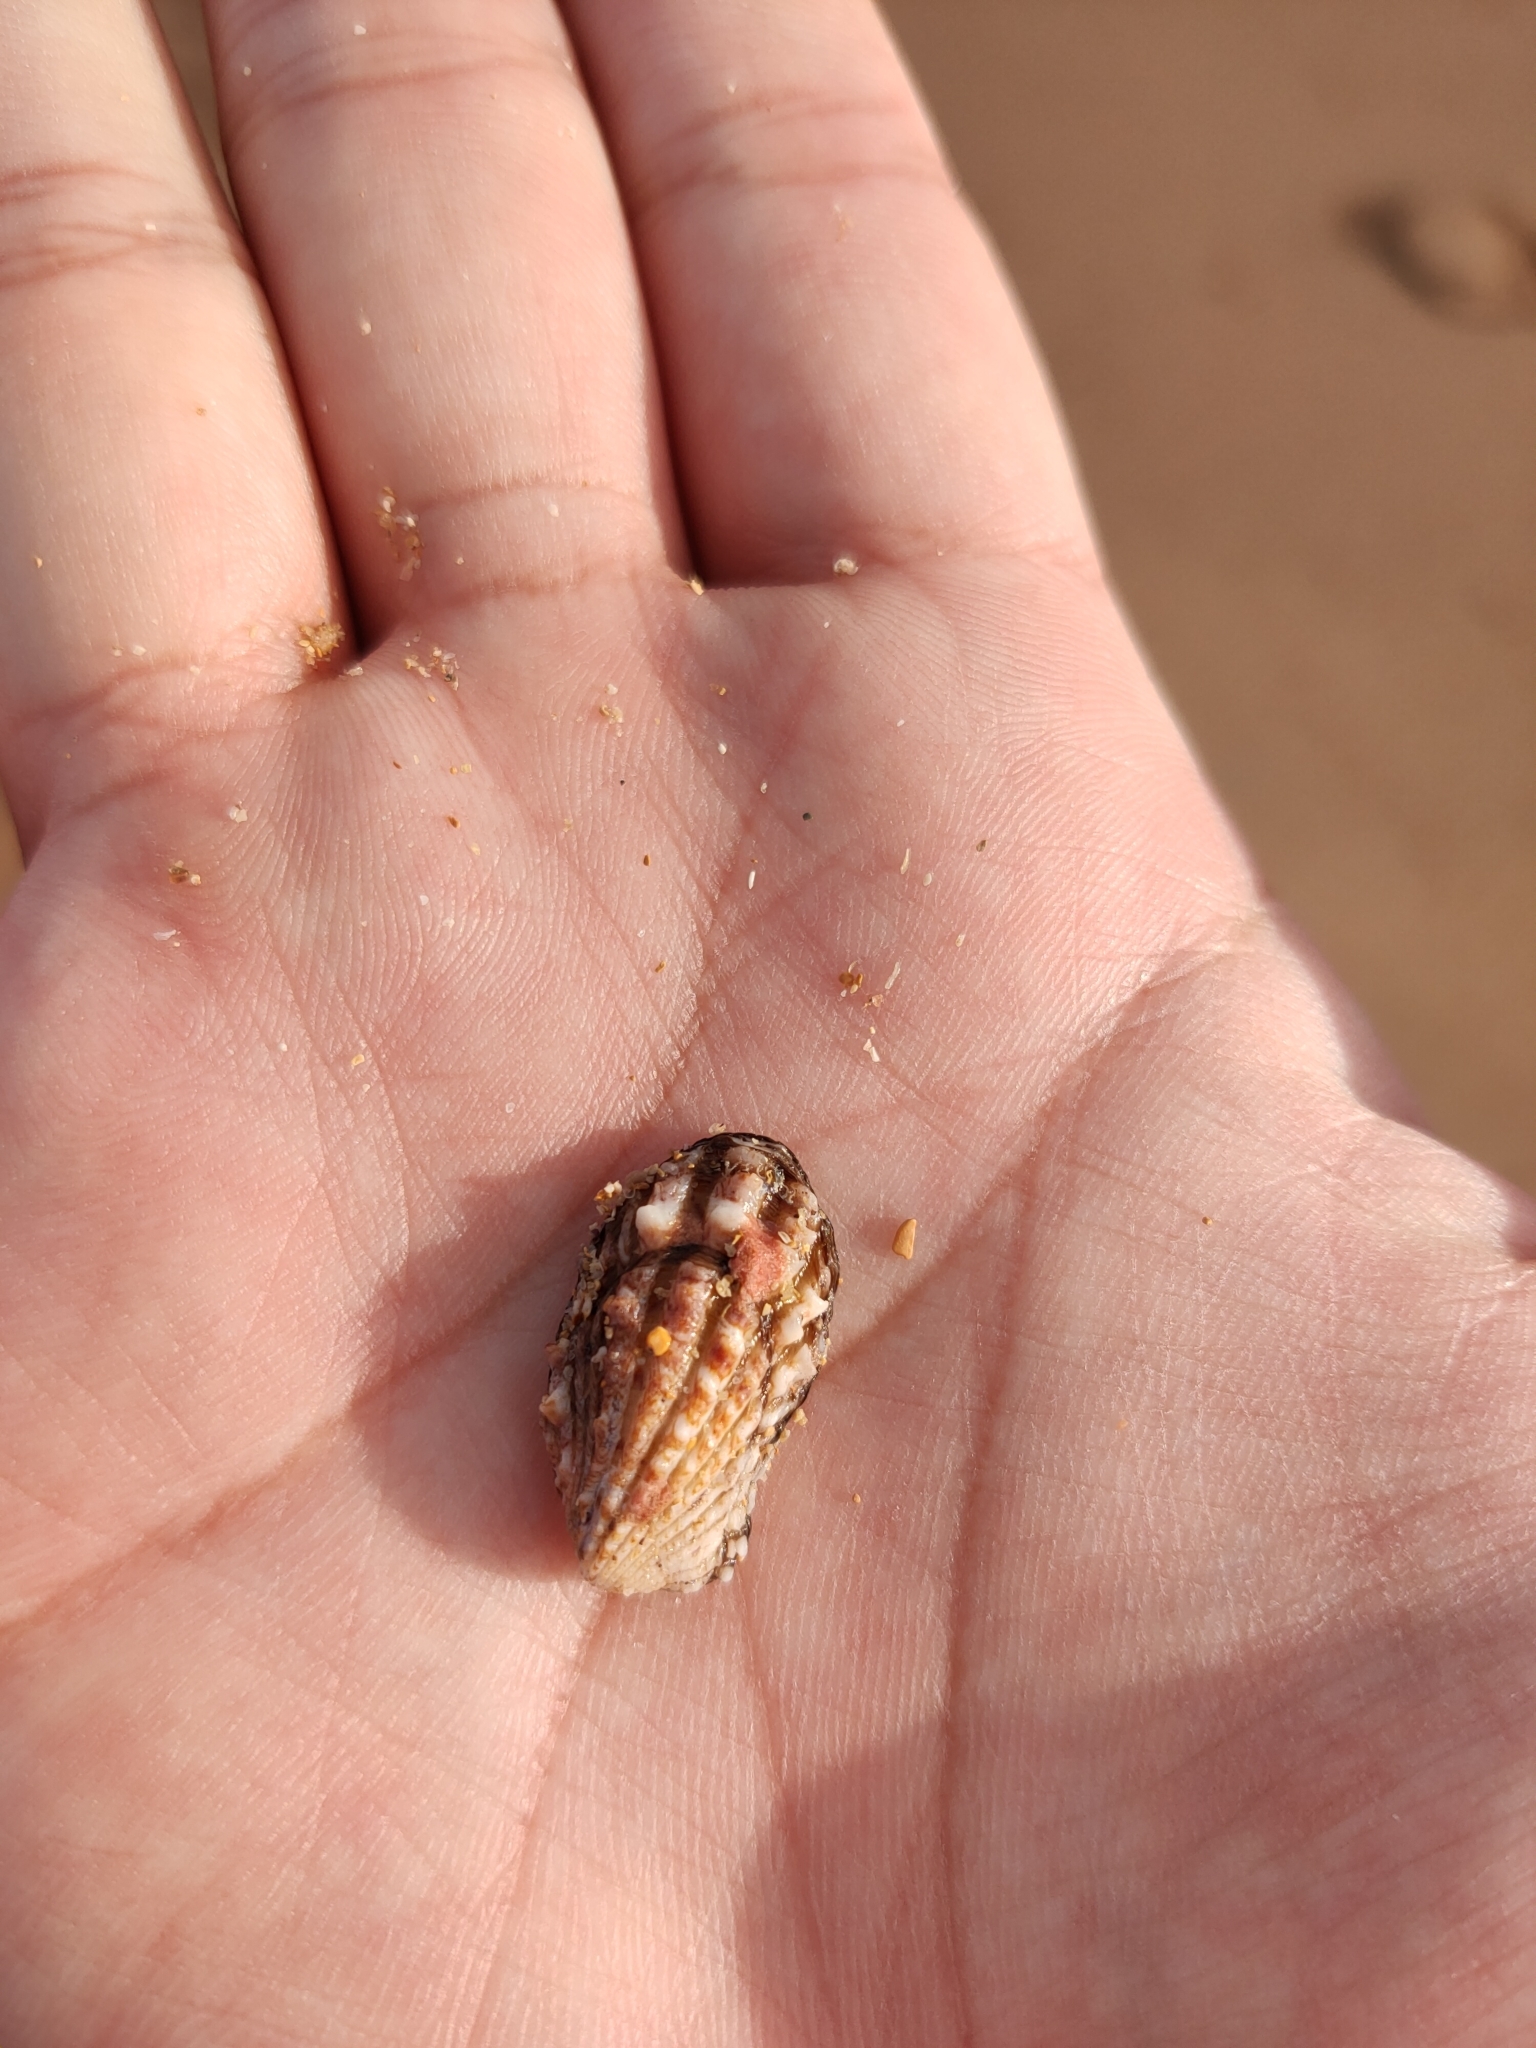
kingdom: Animalia
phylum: Mollusca
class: Bivalvia
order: Carditida
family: Carditidae
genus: Cardita
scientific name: Cardita aviculina
